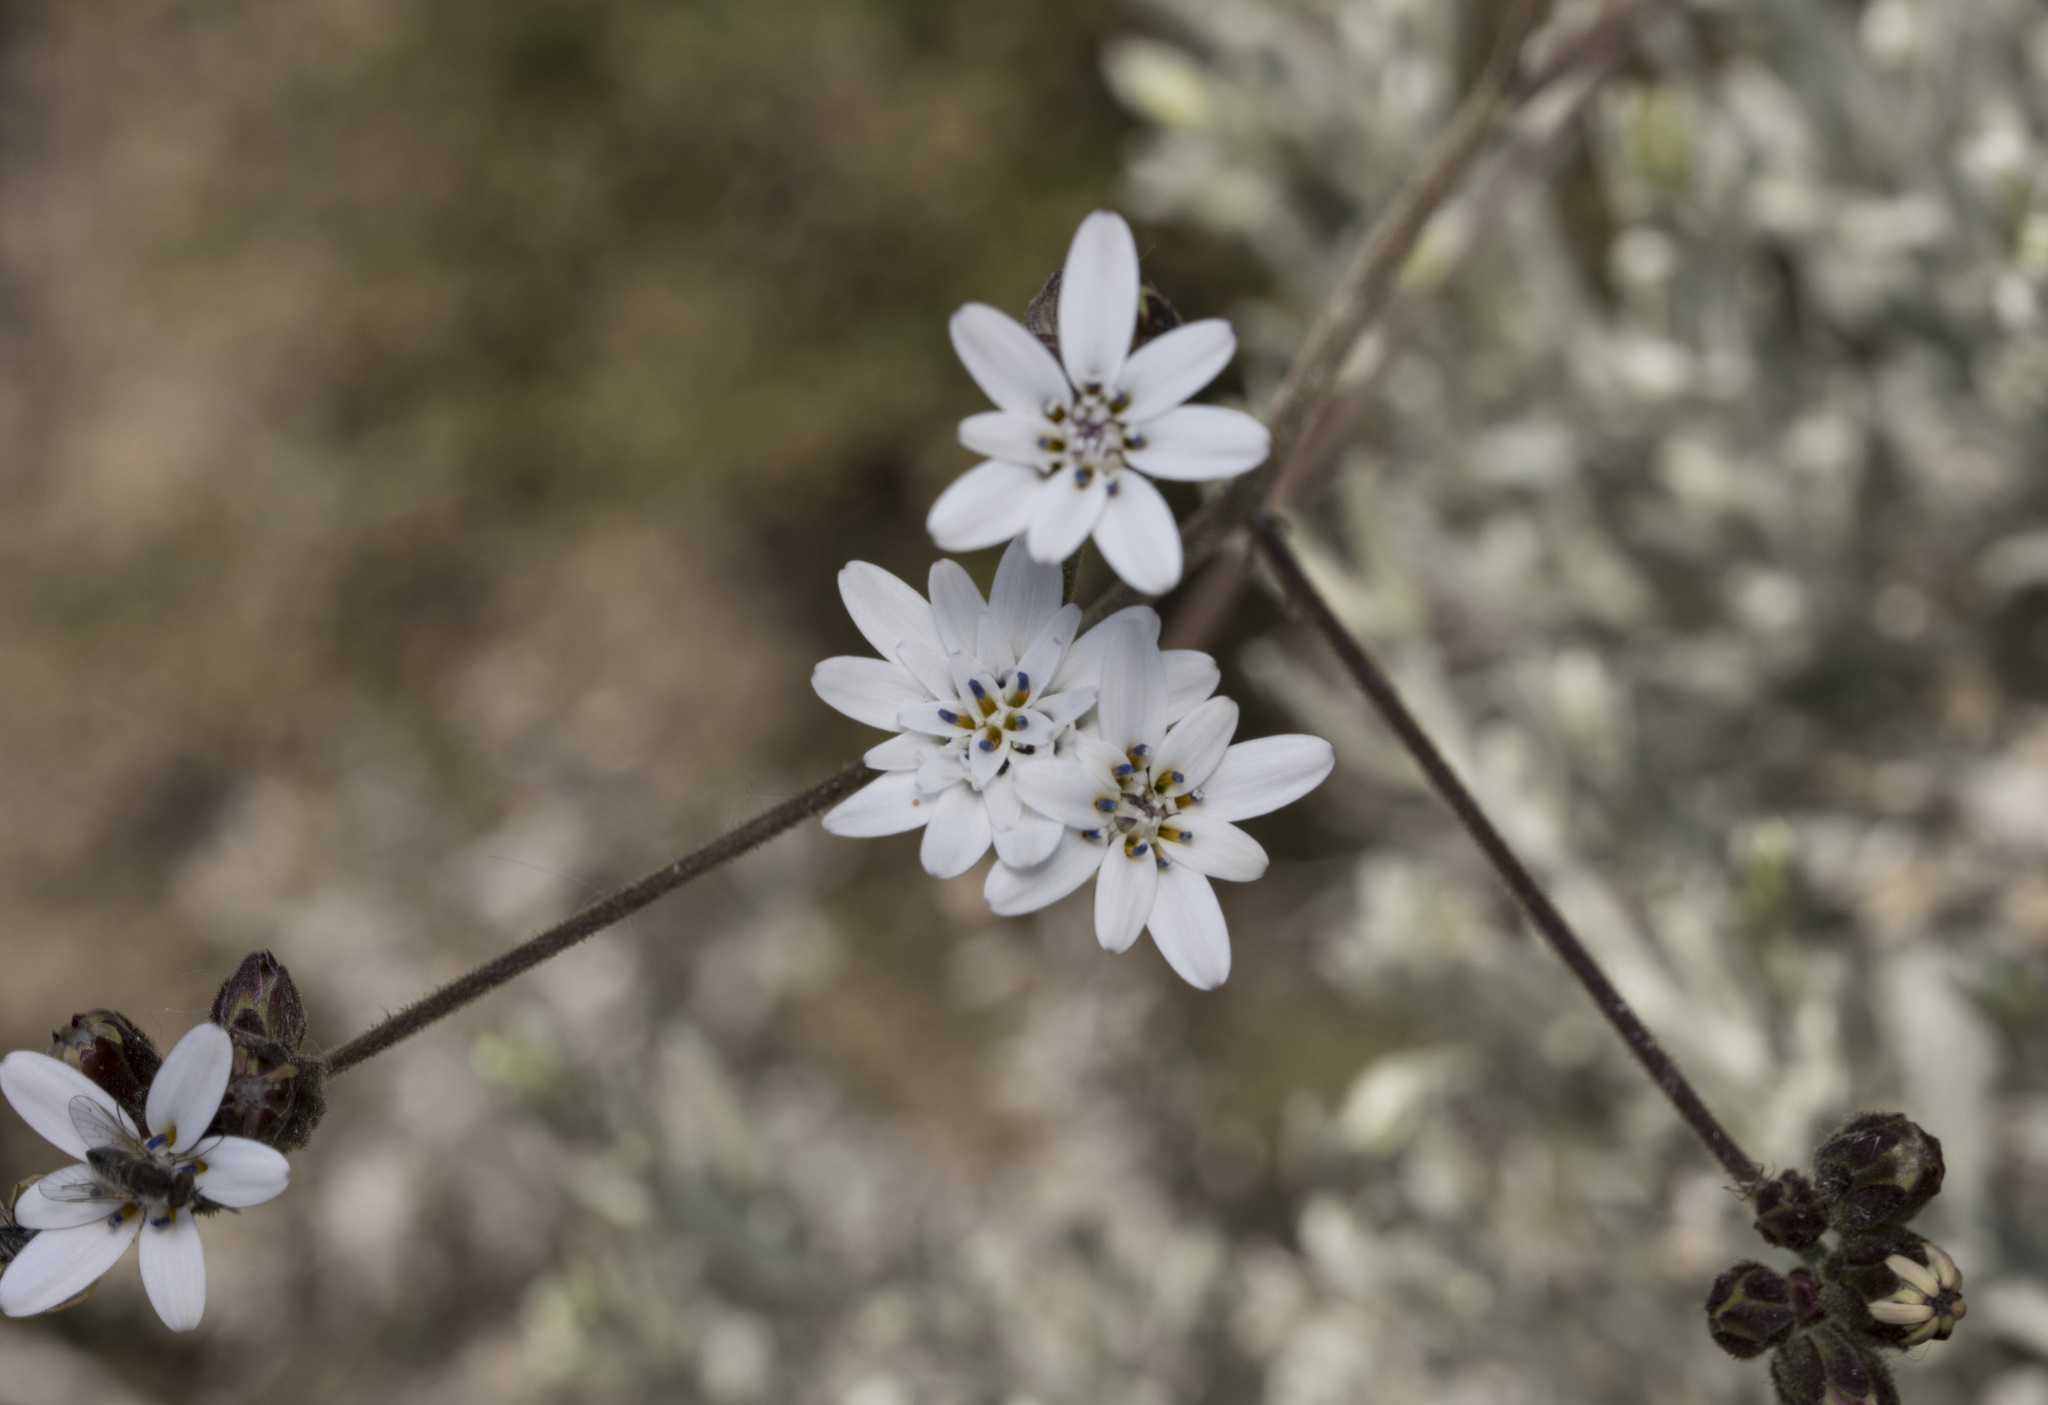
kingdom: Plantae
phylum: Tracheophyta
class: Magnoliopsida
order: Asterales
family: Asteraceae
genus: Leucheria
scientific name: Leucheria runcinata
